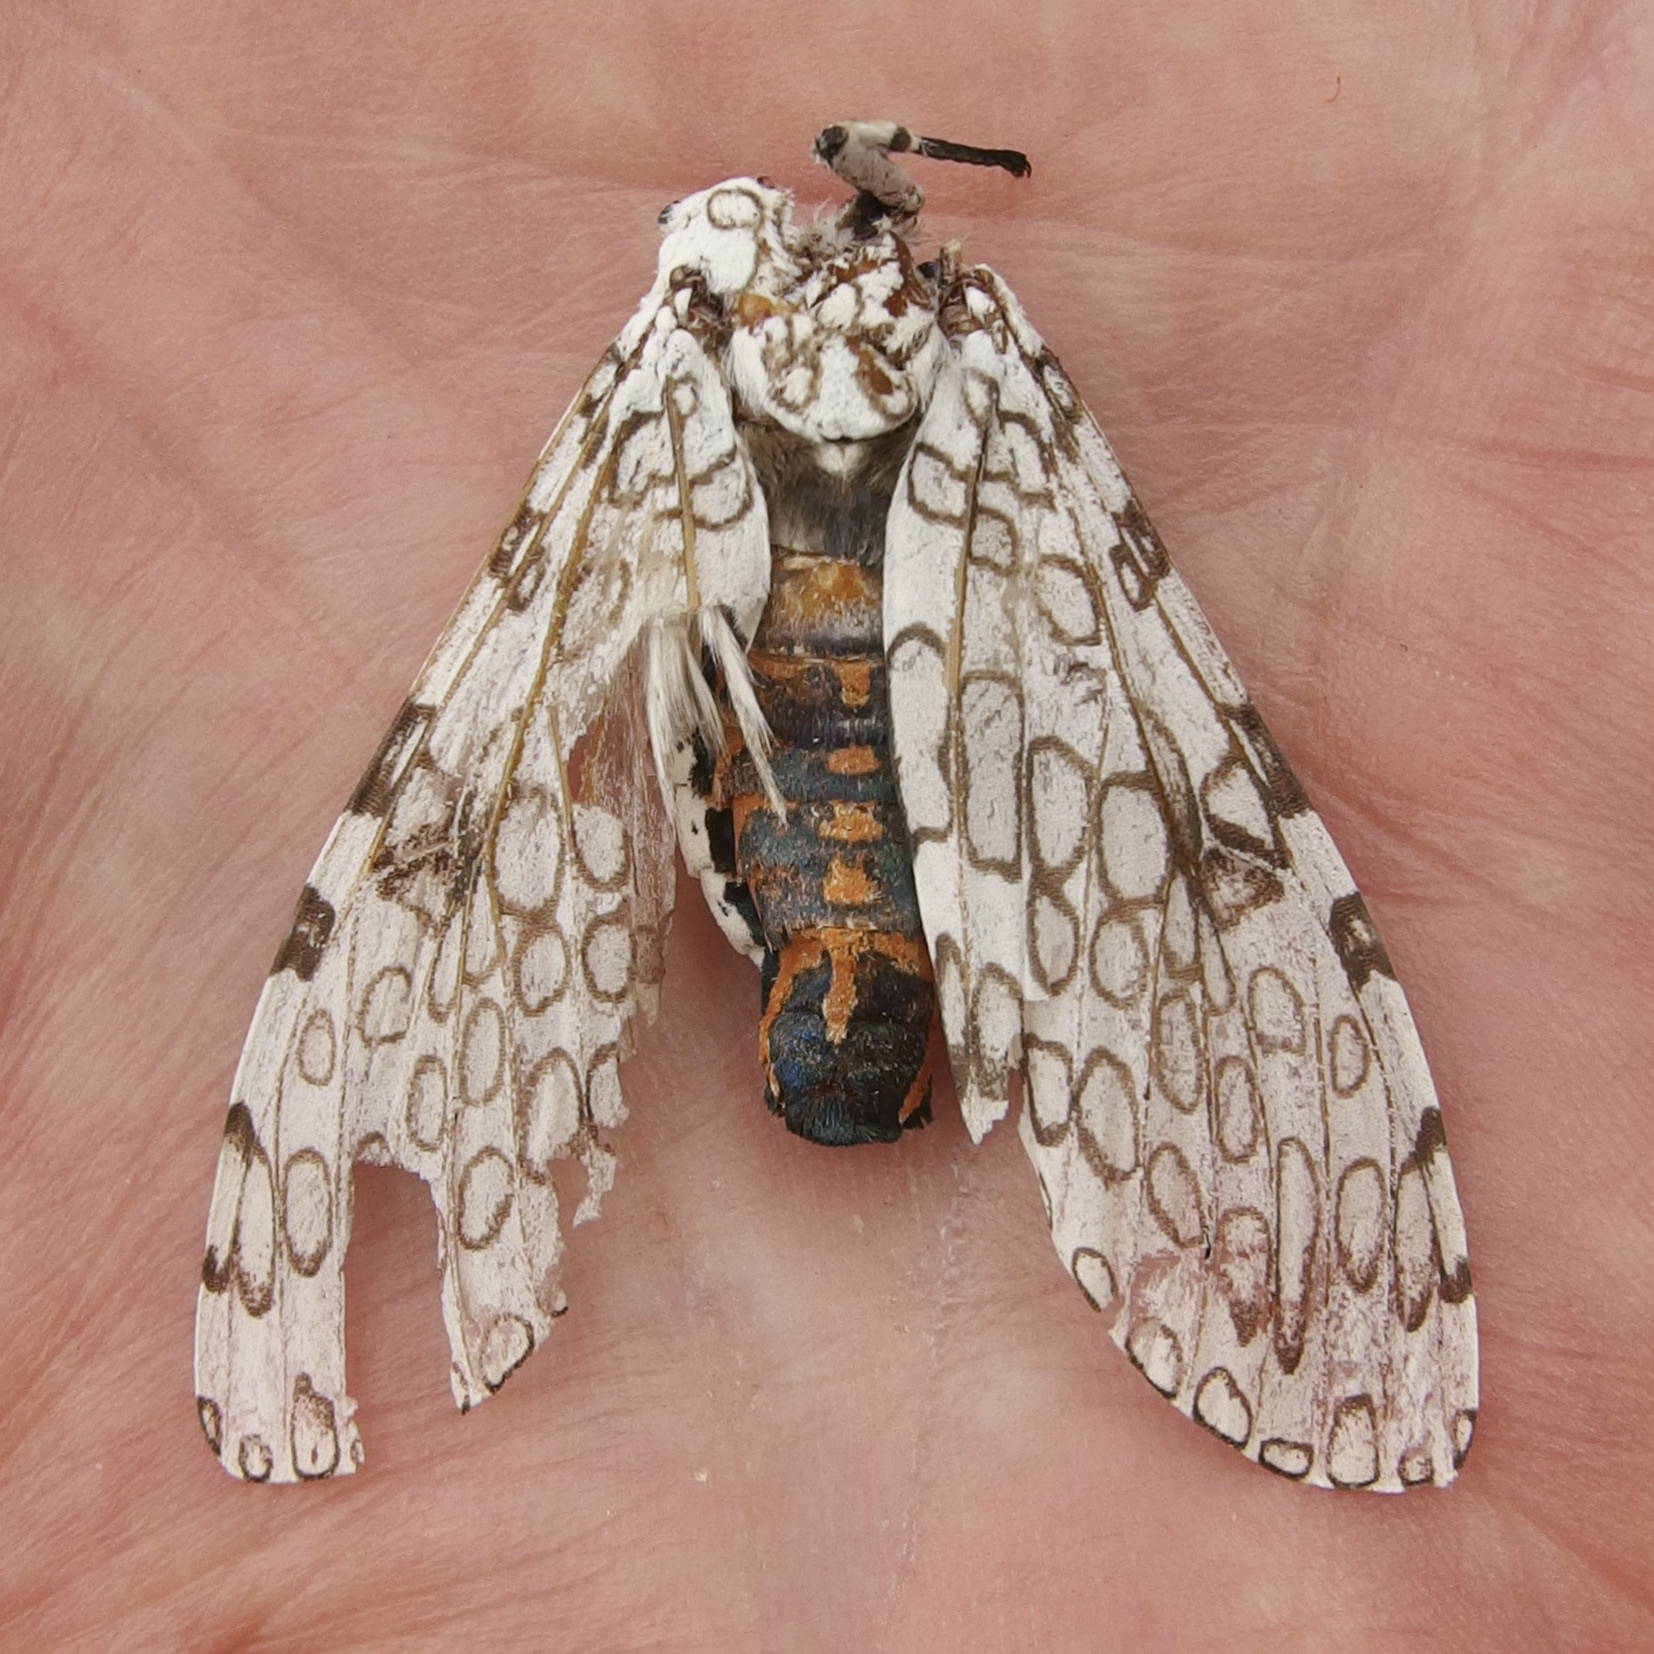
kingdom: Animalia
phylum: Arthropoda
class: Insecta
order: Lepidoptera
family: Erebidae
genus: Hypercompe
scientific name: Hypercompe scribonia
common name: Giant leopard moth
